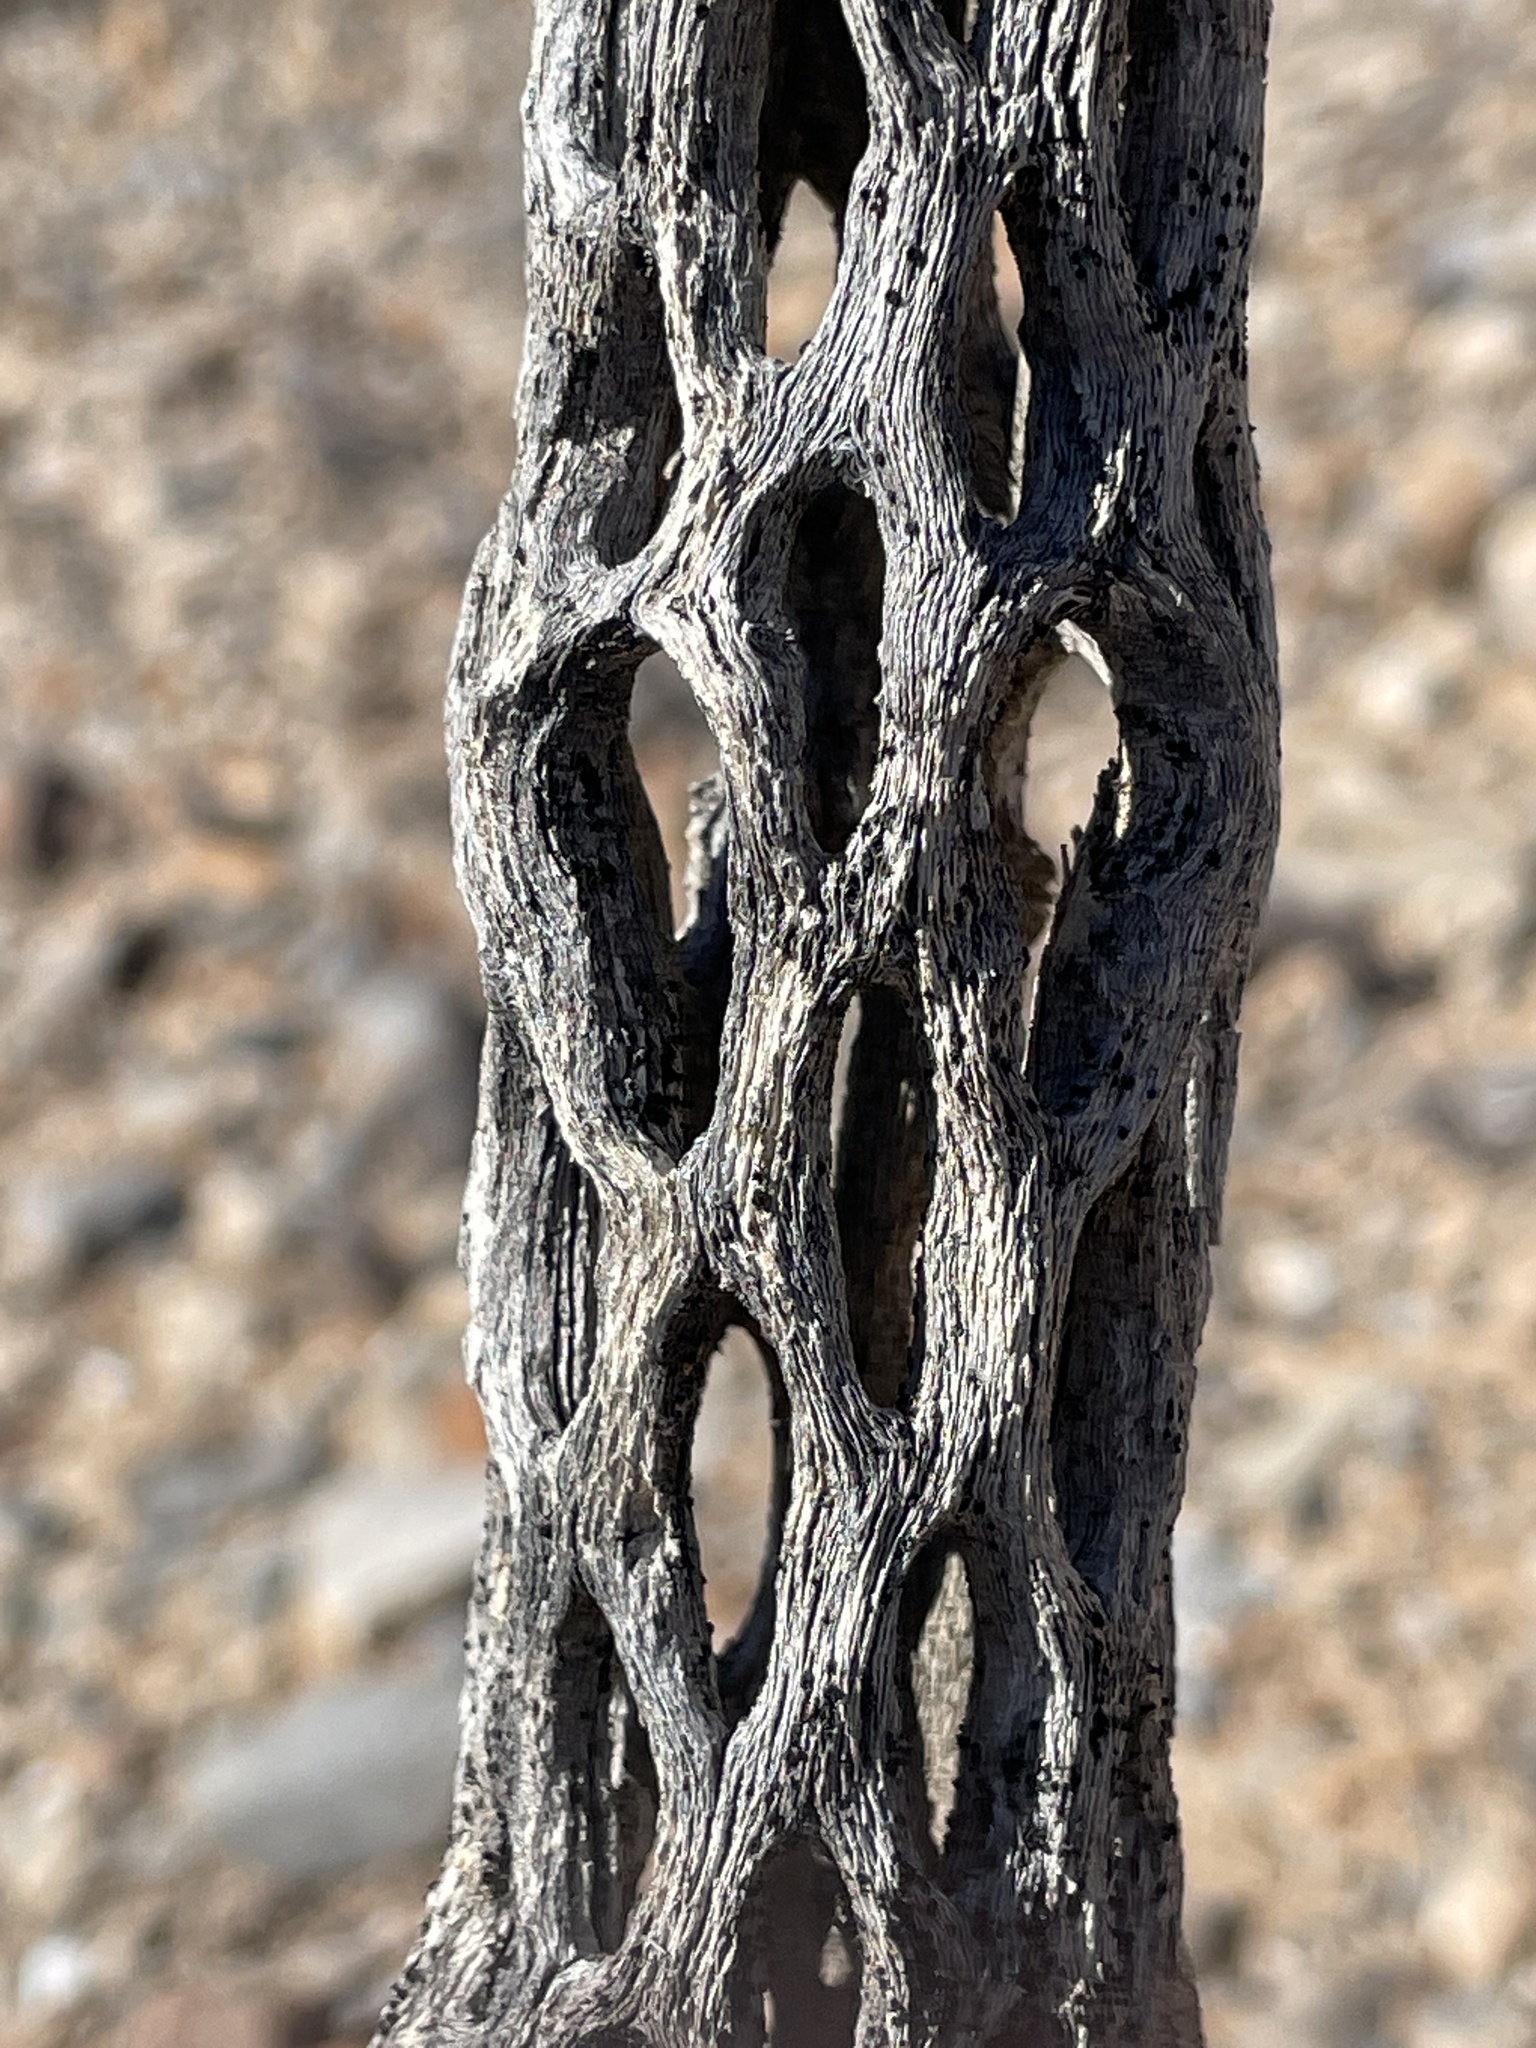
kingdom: Plantae
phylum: Tracheophyta
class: Magnoliopsida
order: Caryophyllales
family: Cactaceae
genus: Cylindropuntia
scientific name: Cylindropuntia acanthocarpa
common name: Buckhorn cholla
